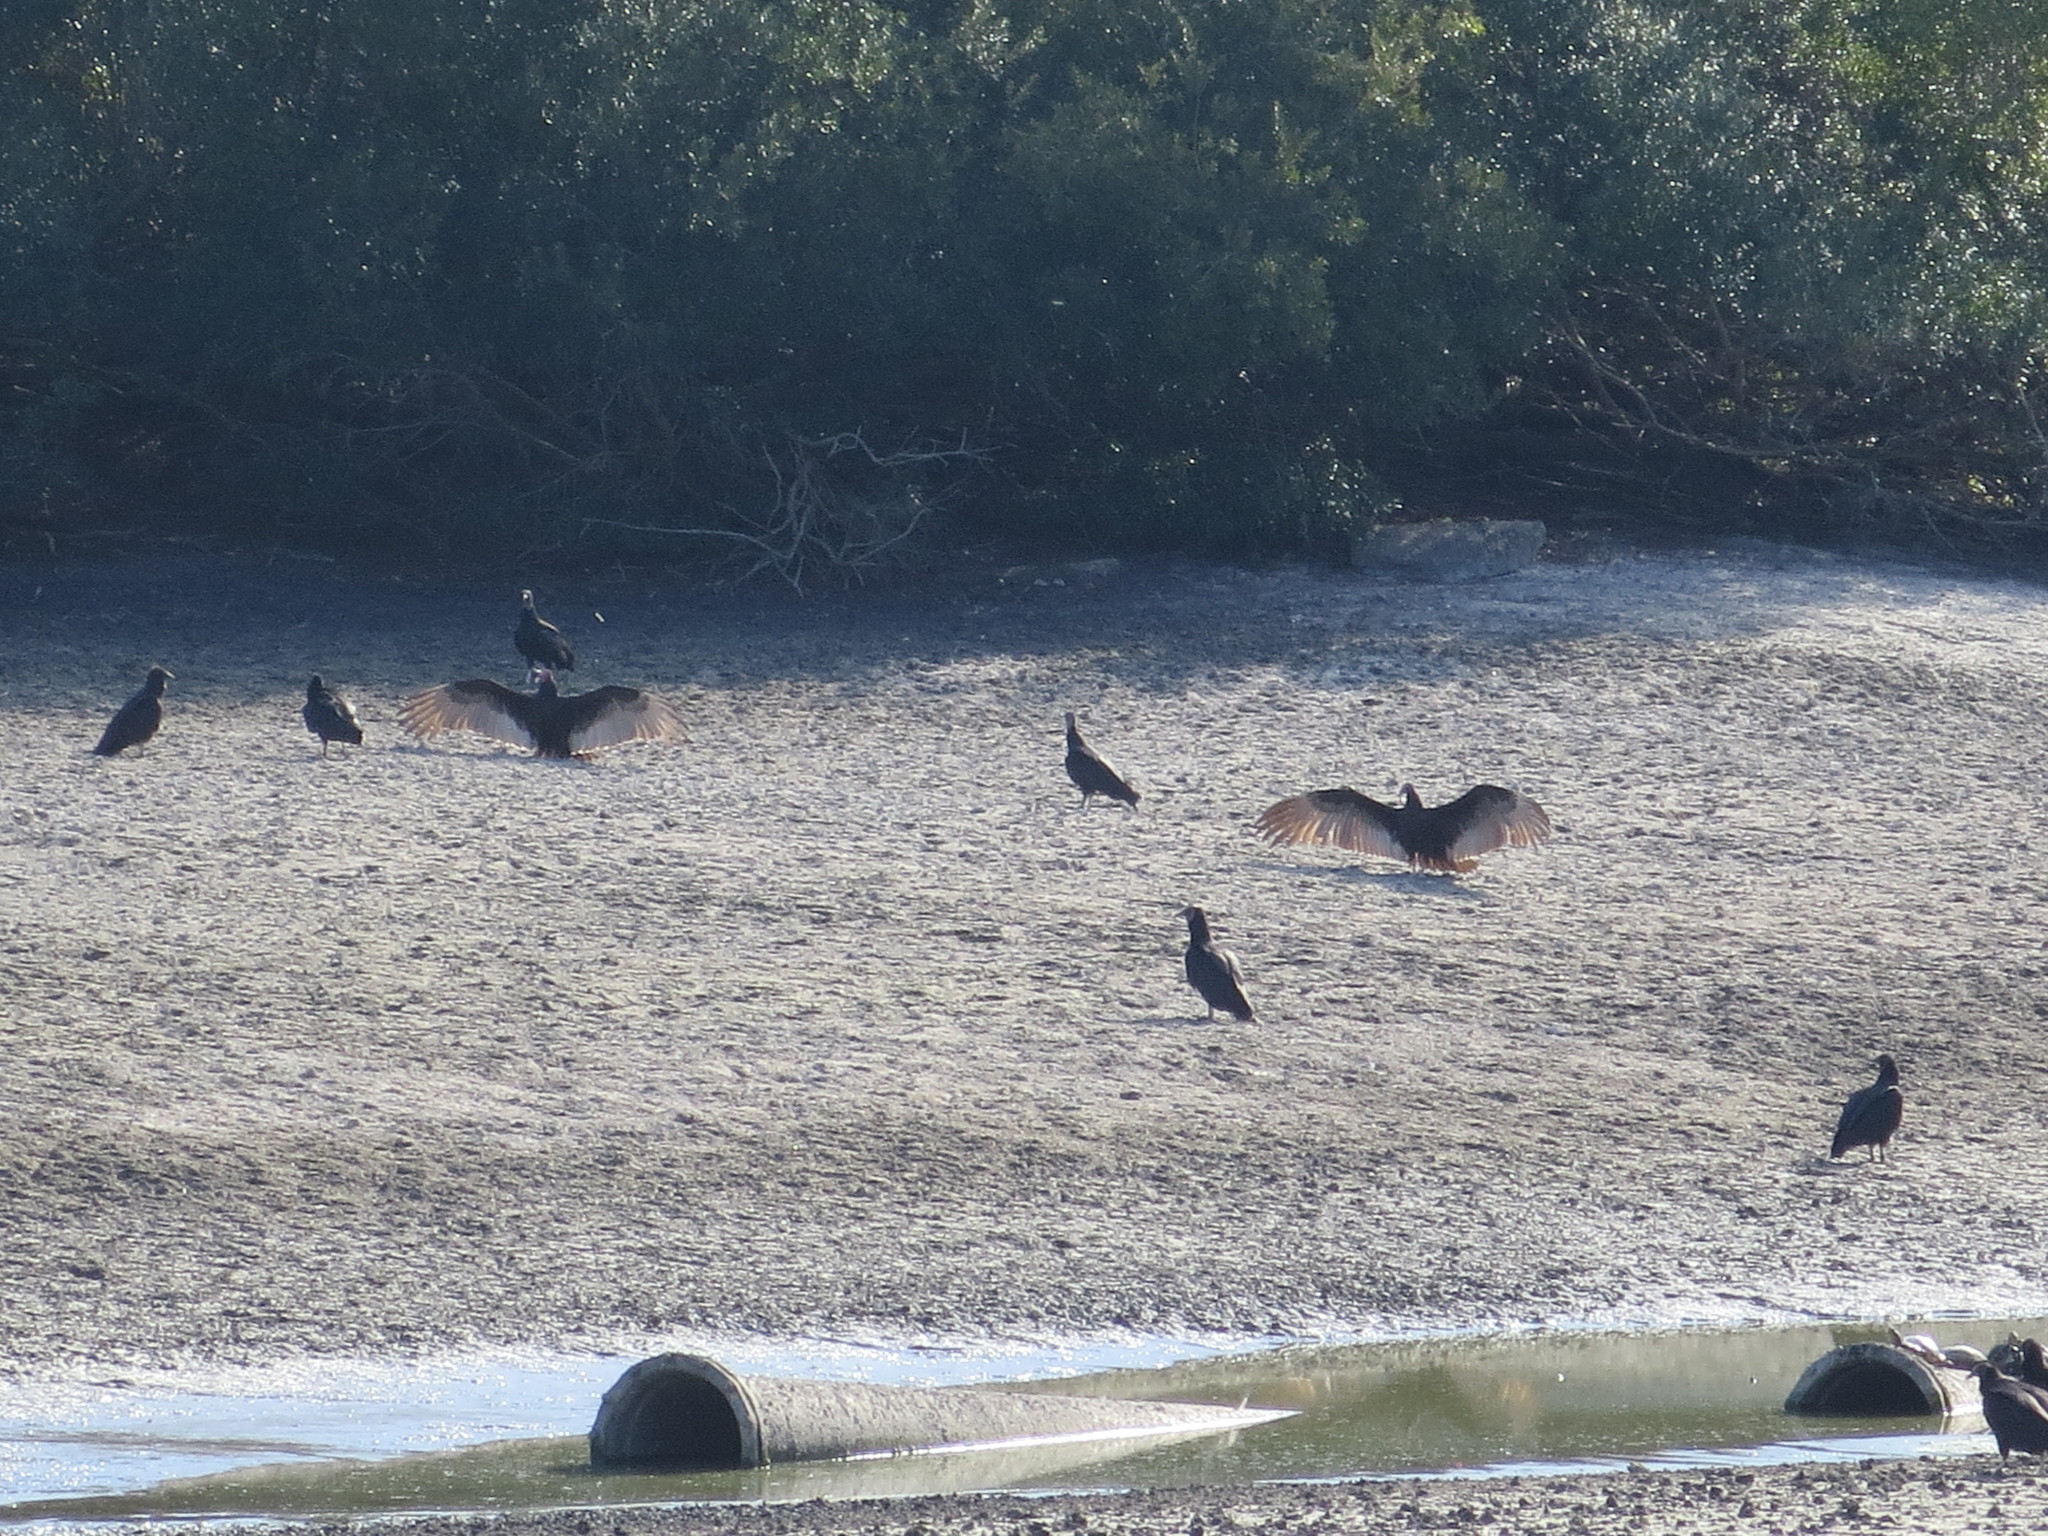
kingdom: Animalia
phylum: Chordata
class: Aves
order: Accipitriformes
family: Cathartidae
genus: Cathartes
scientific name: Cathartes aura
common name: Turkey vulture
